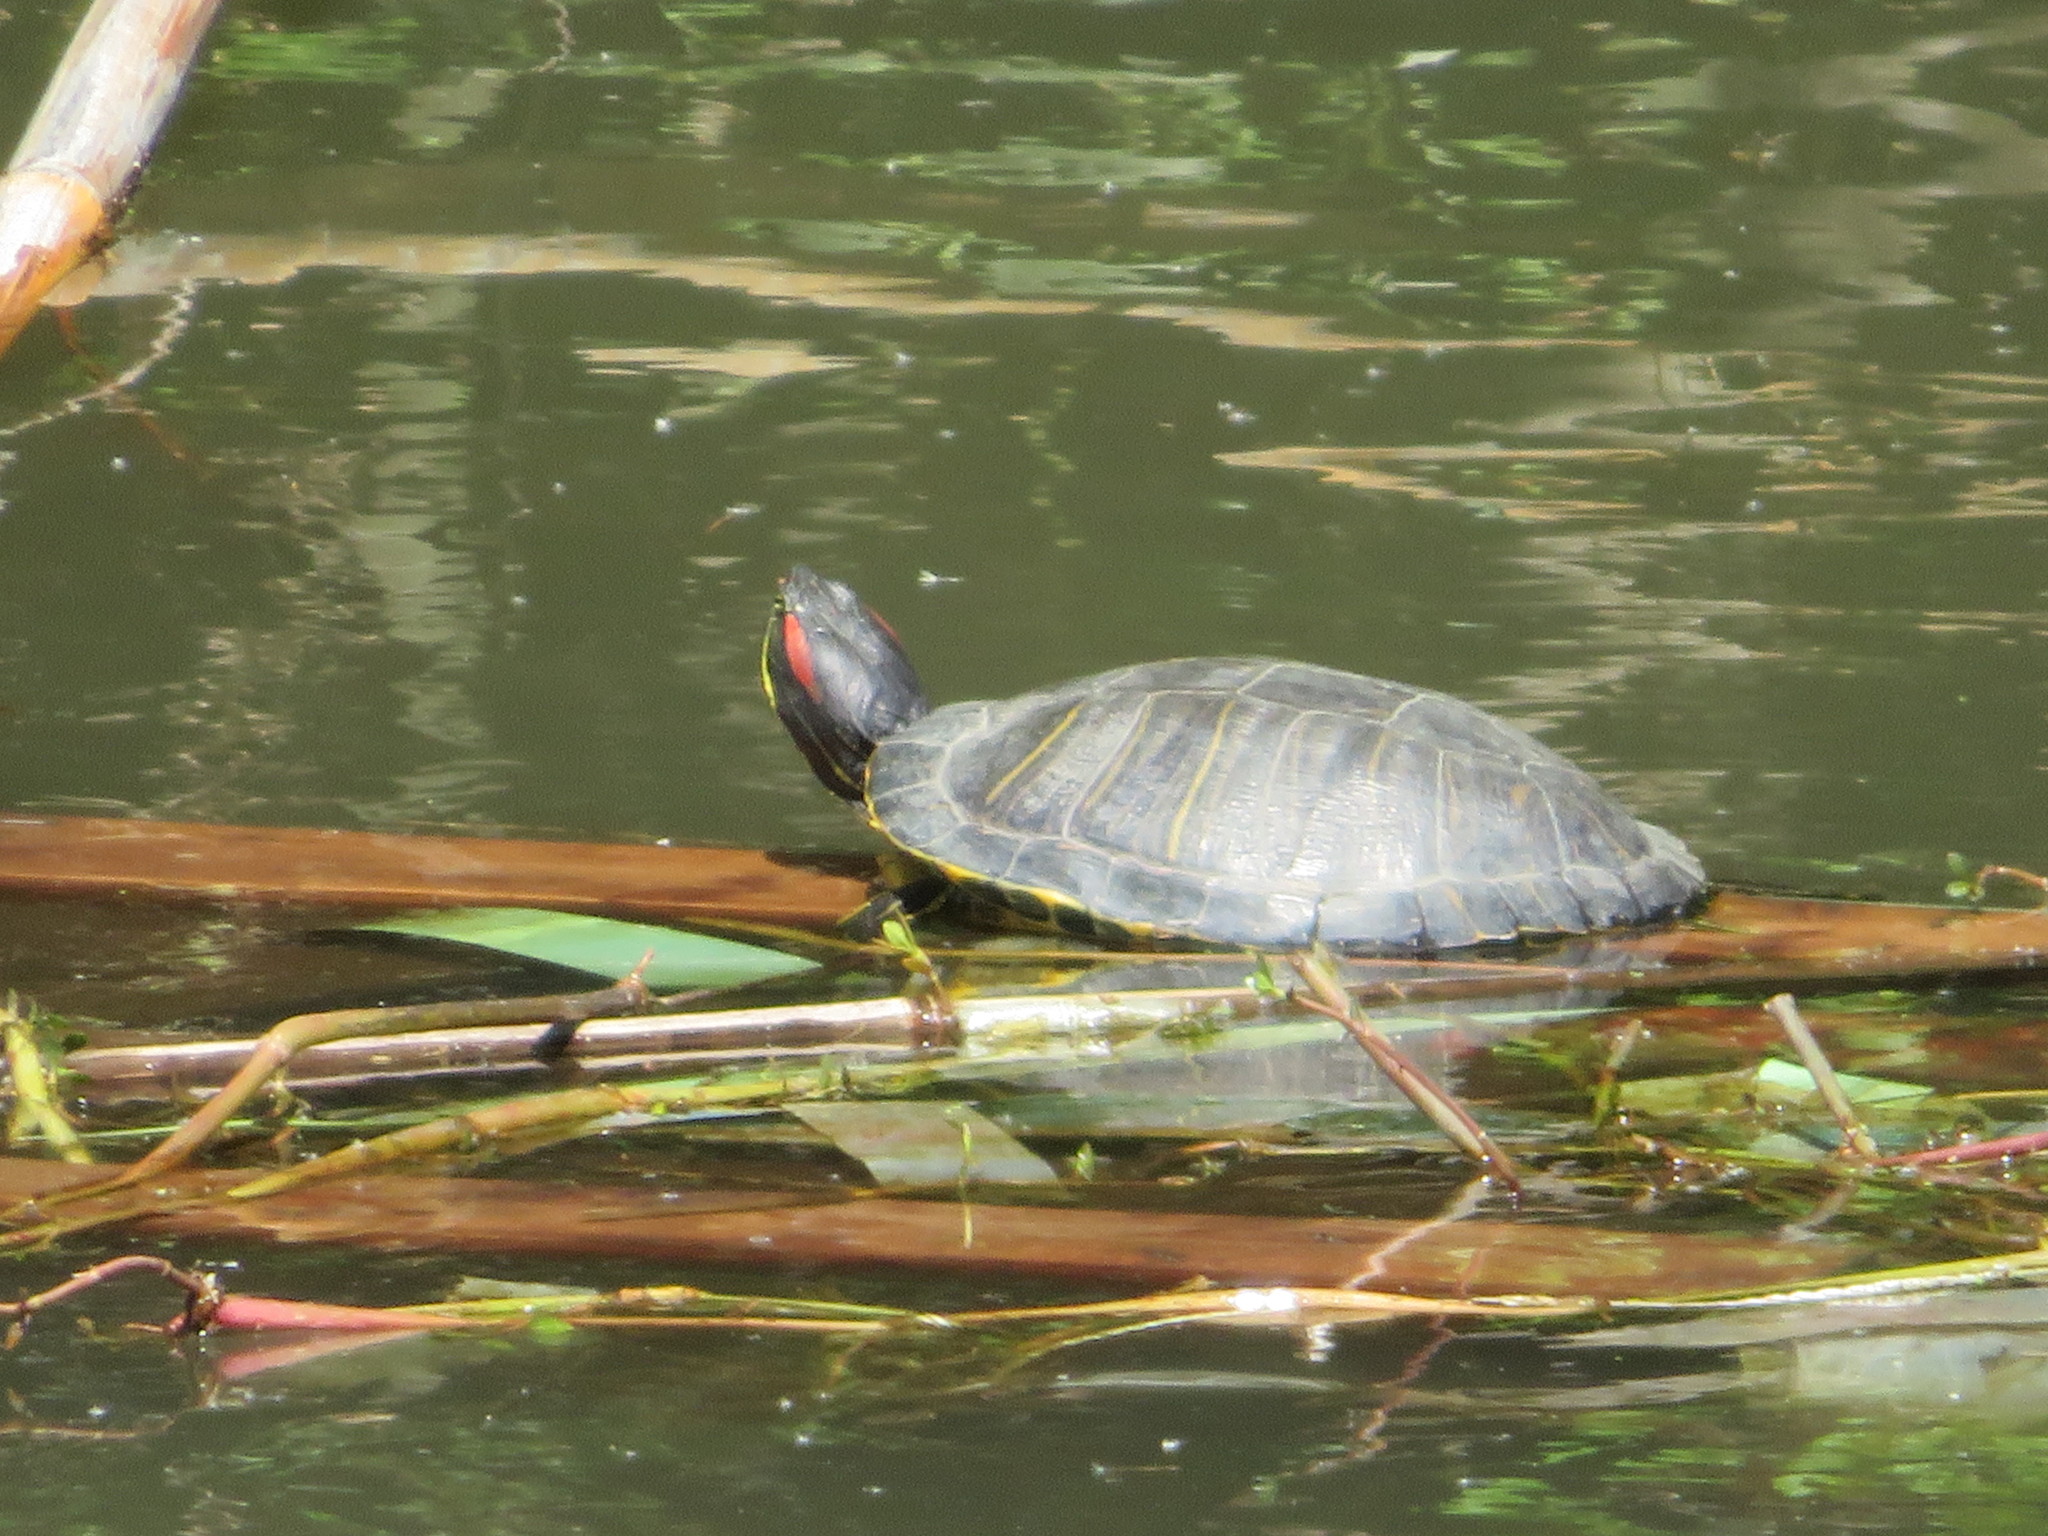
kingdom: Animalia
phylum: Chordata
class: Testudines
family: Emydidae
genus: Trachemys
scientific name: Trachemys scripta
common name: Slider
